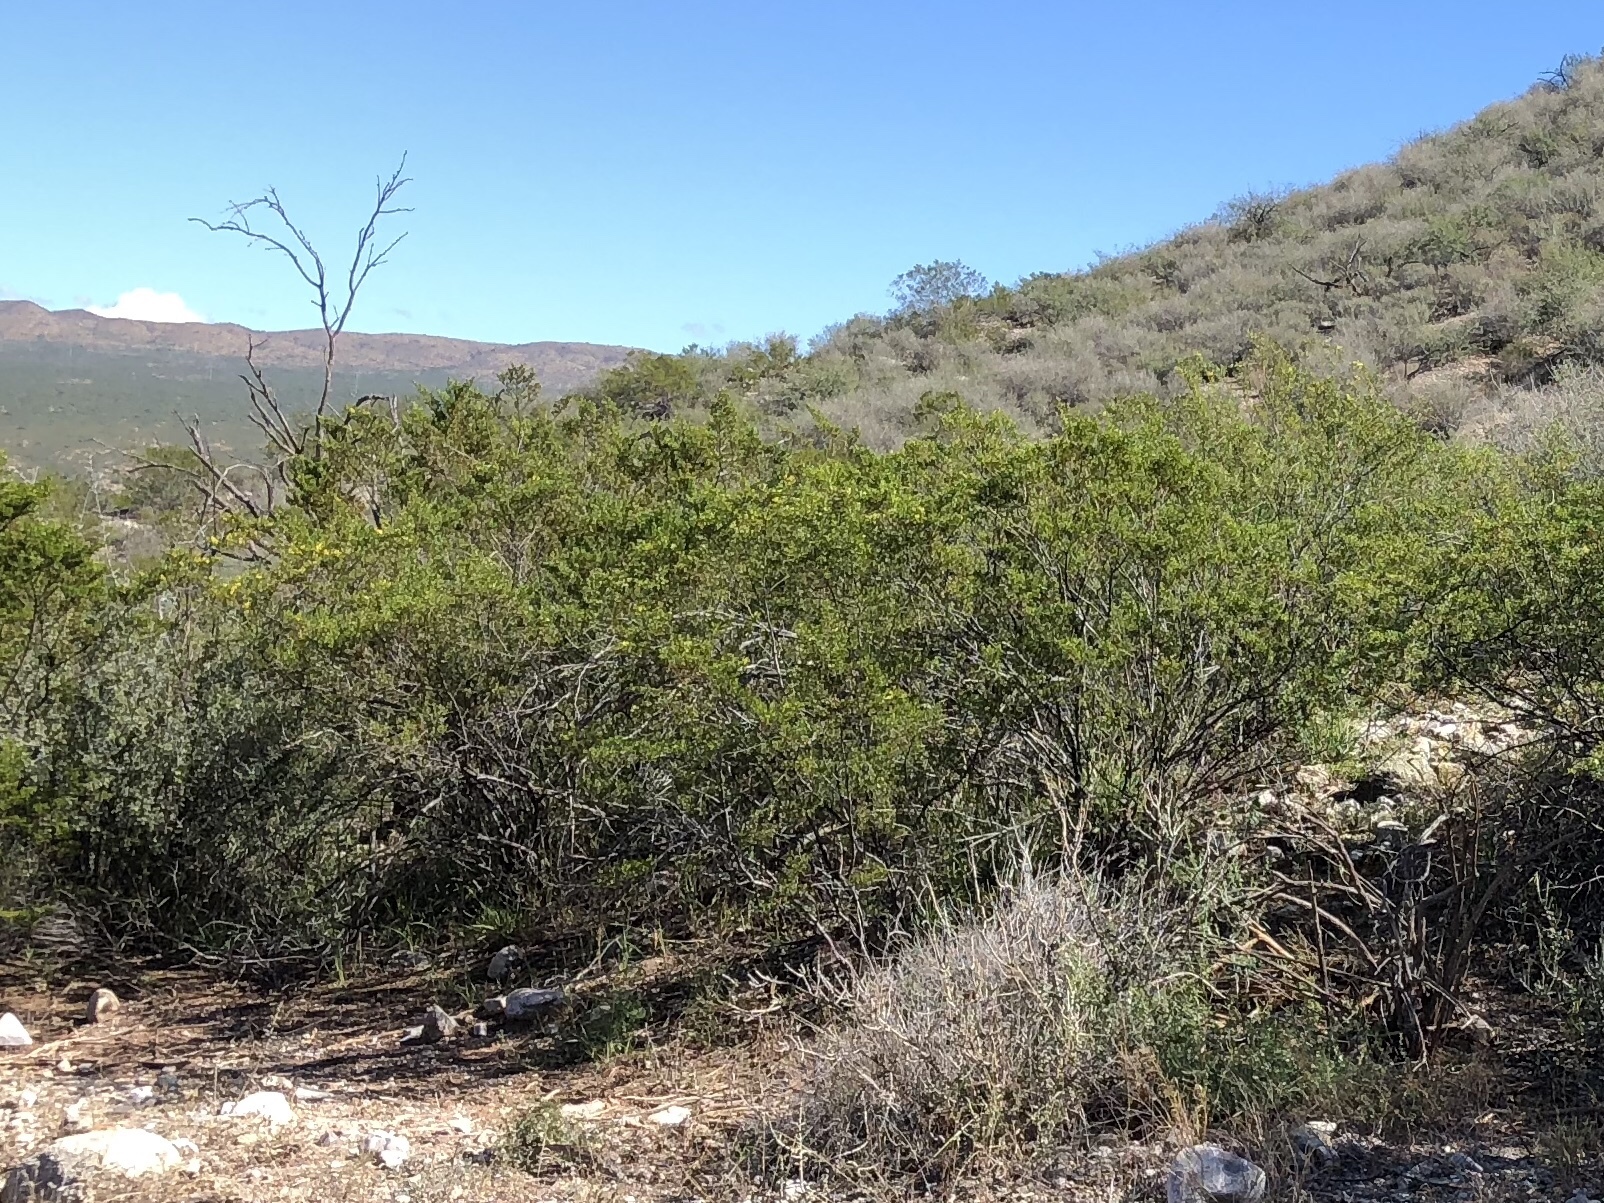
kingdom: Plantae
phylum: Tracheophyta
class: Magnoliopsida
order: Zygophyllales
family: Zygophyllaceae
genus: Larrea
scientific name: Larrea tridentata
